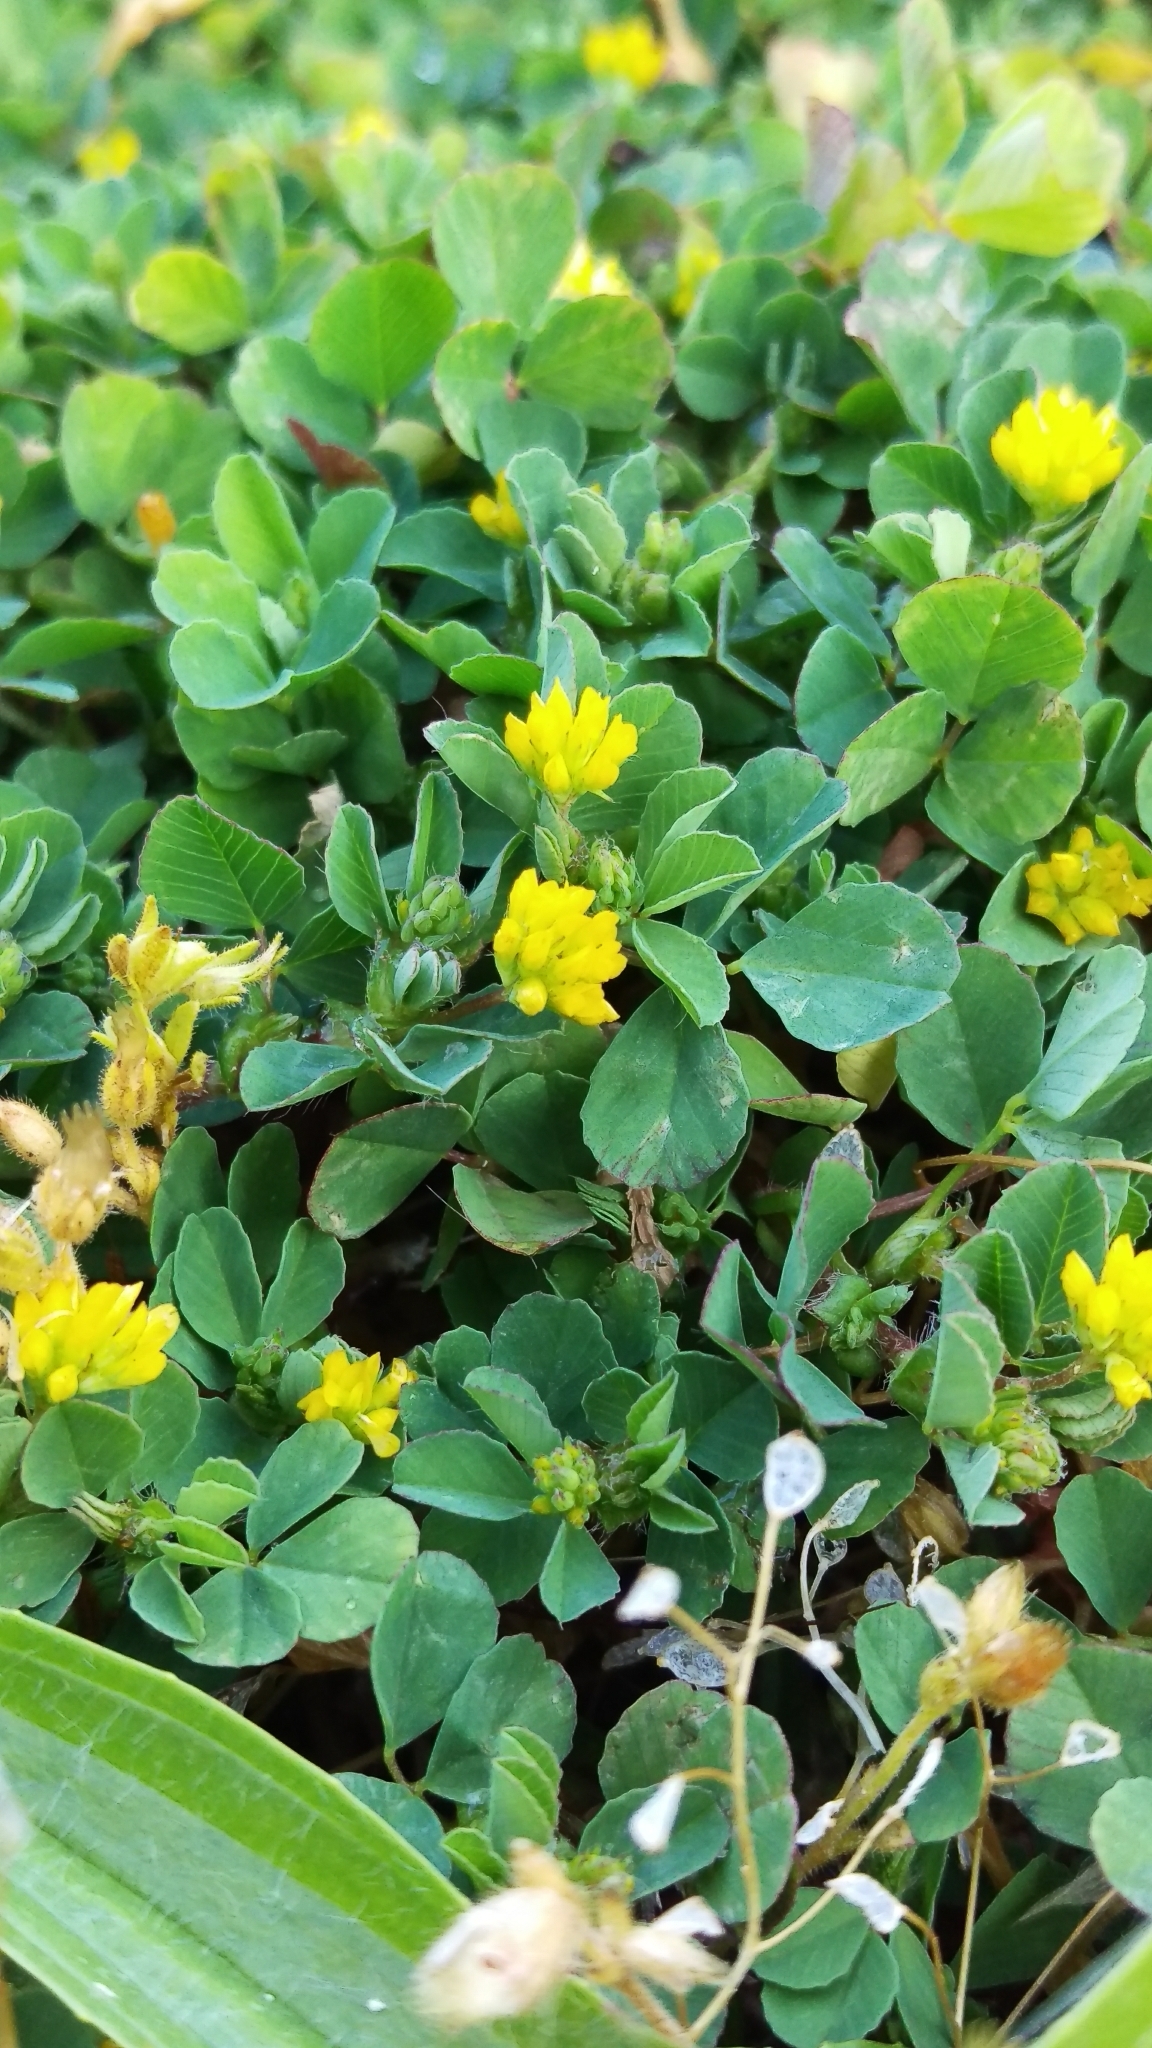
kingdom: Plantae
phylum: Tracheophyta
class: Magnoliopsida
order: Fabales
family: Fabaceae
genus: Trifolium
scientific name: Trifolium dubium
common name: Suckling clover
